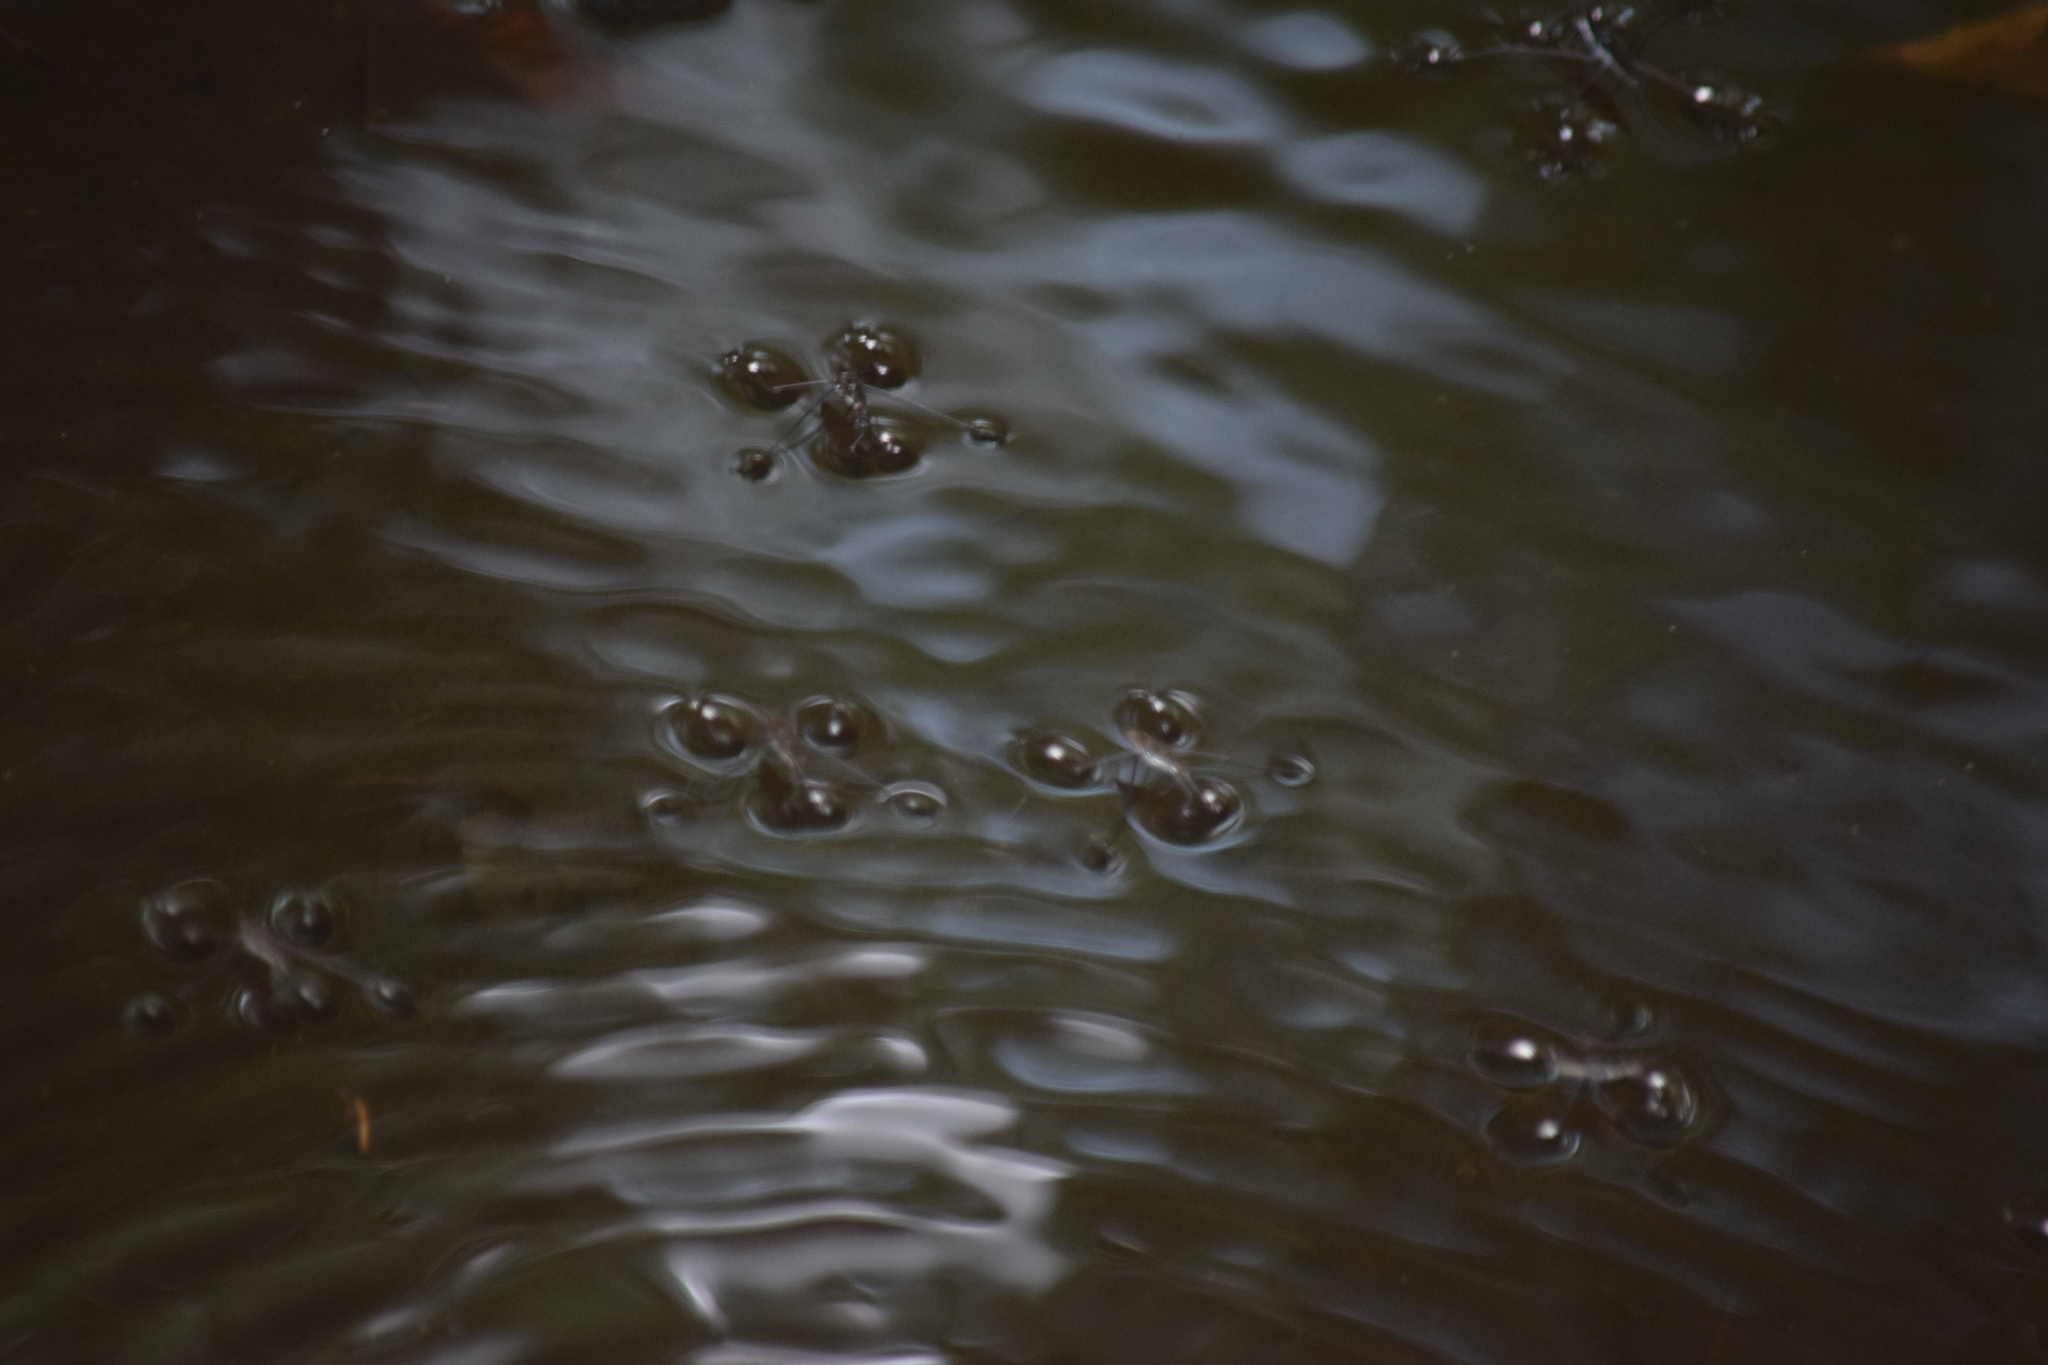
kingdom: Animalia
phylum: Arthropoda
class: Insecta
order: Hemiptera
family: Gerridae
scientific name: Gerridae
